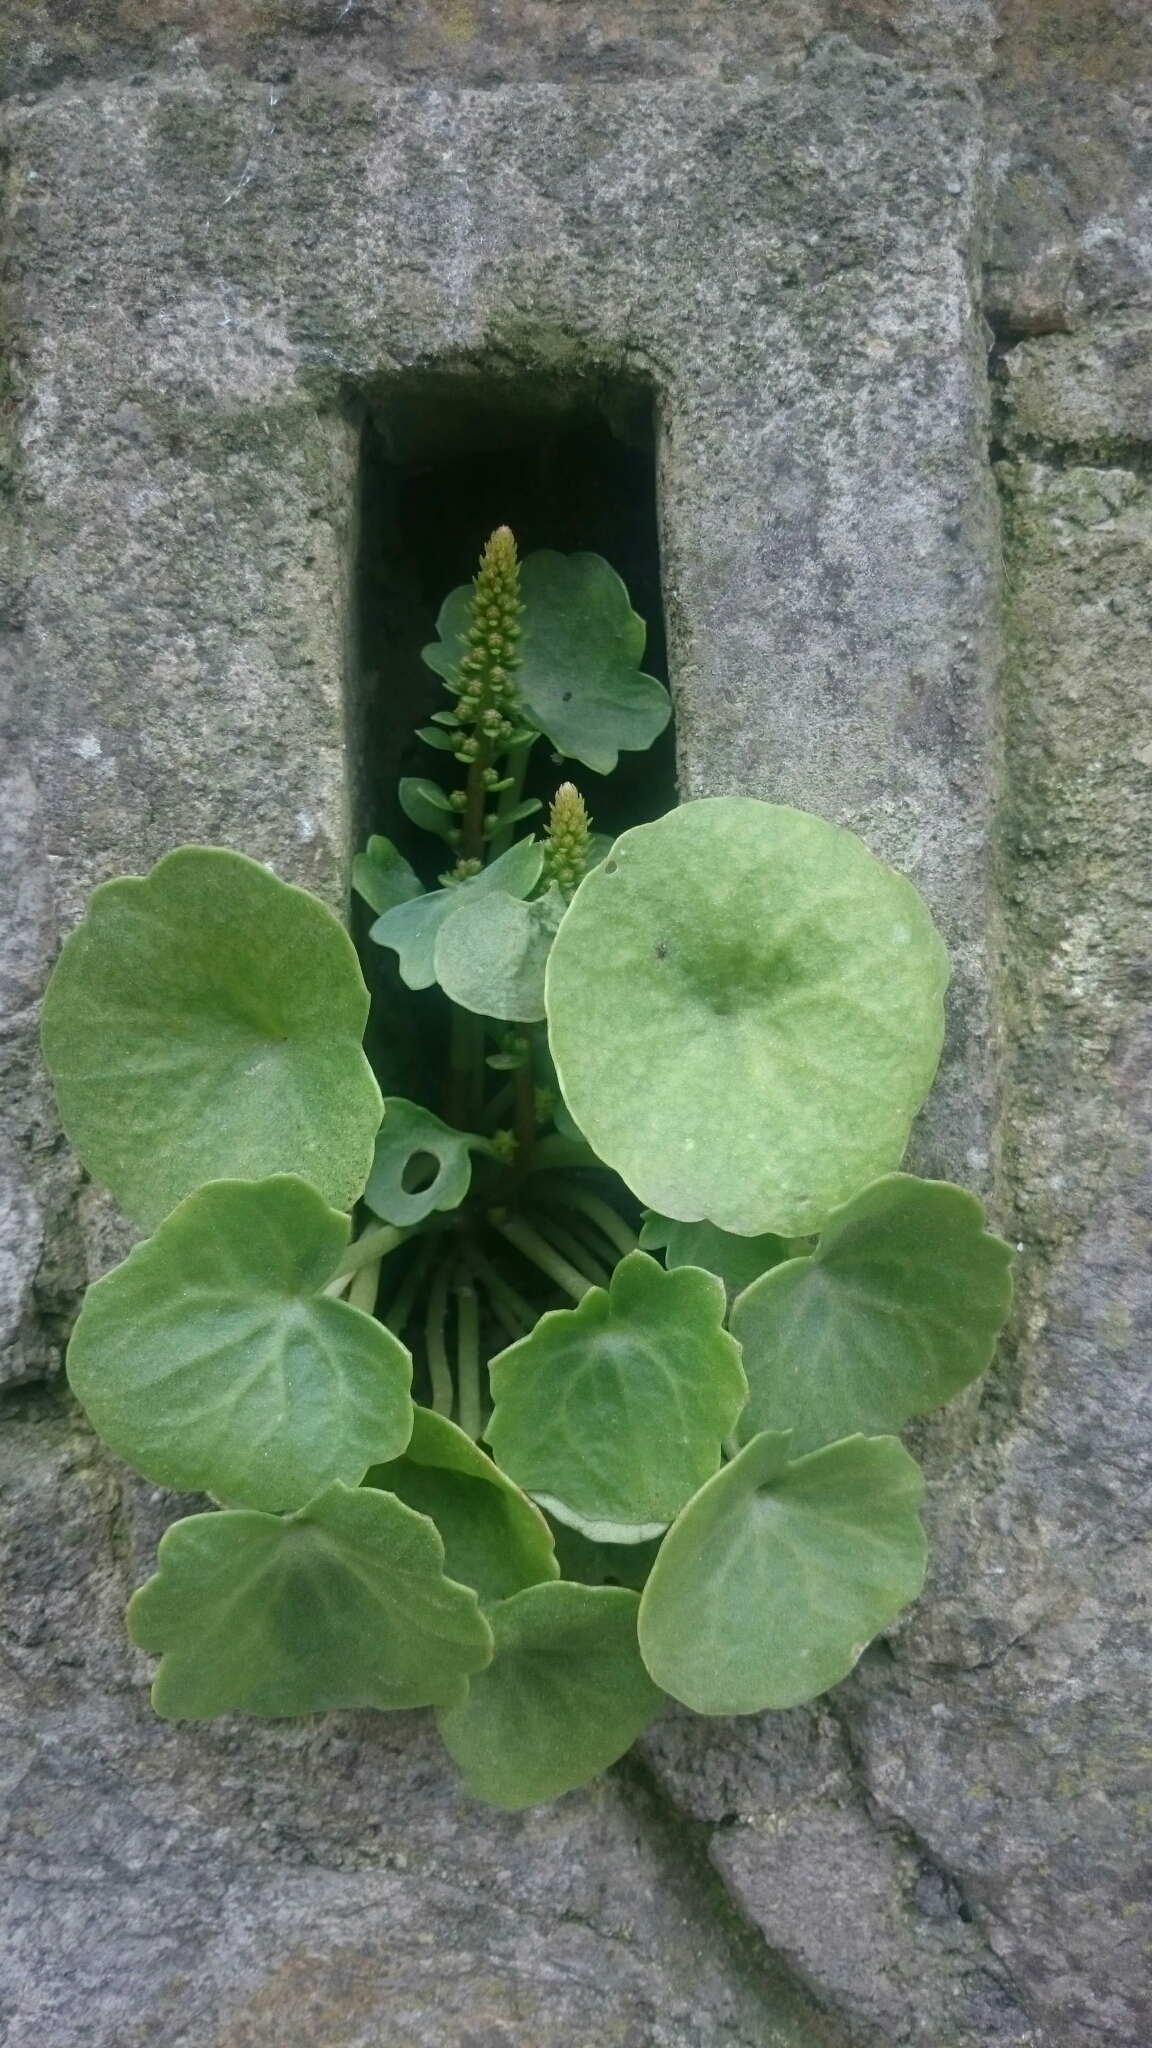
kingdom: Plantae
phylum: Tracheophyta
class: Magnoliopsida
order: Saxifragales
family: Crassulaceae
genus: Umbilicus
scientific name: Umbilicus rupestris
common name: Navelwort
